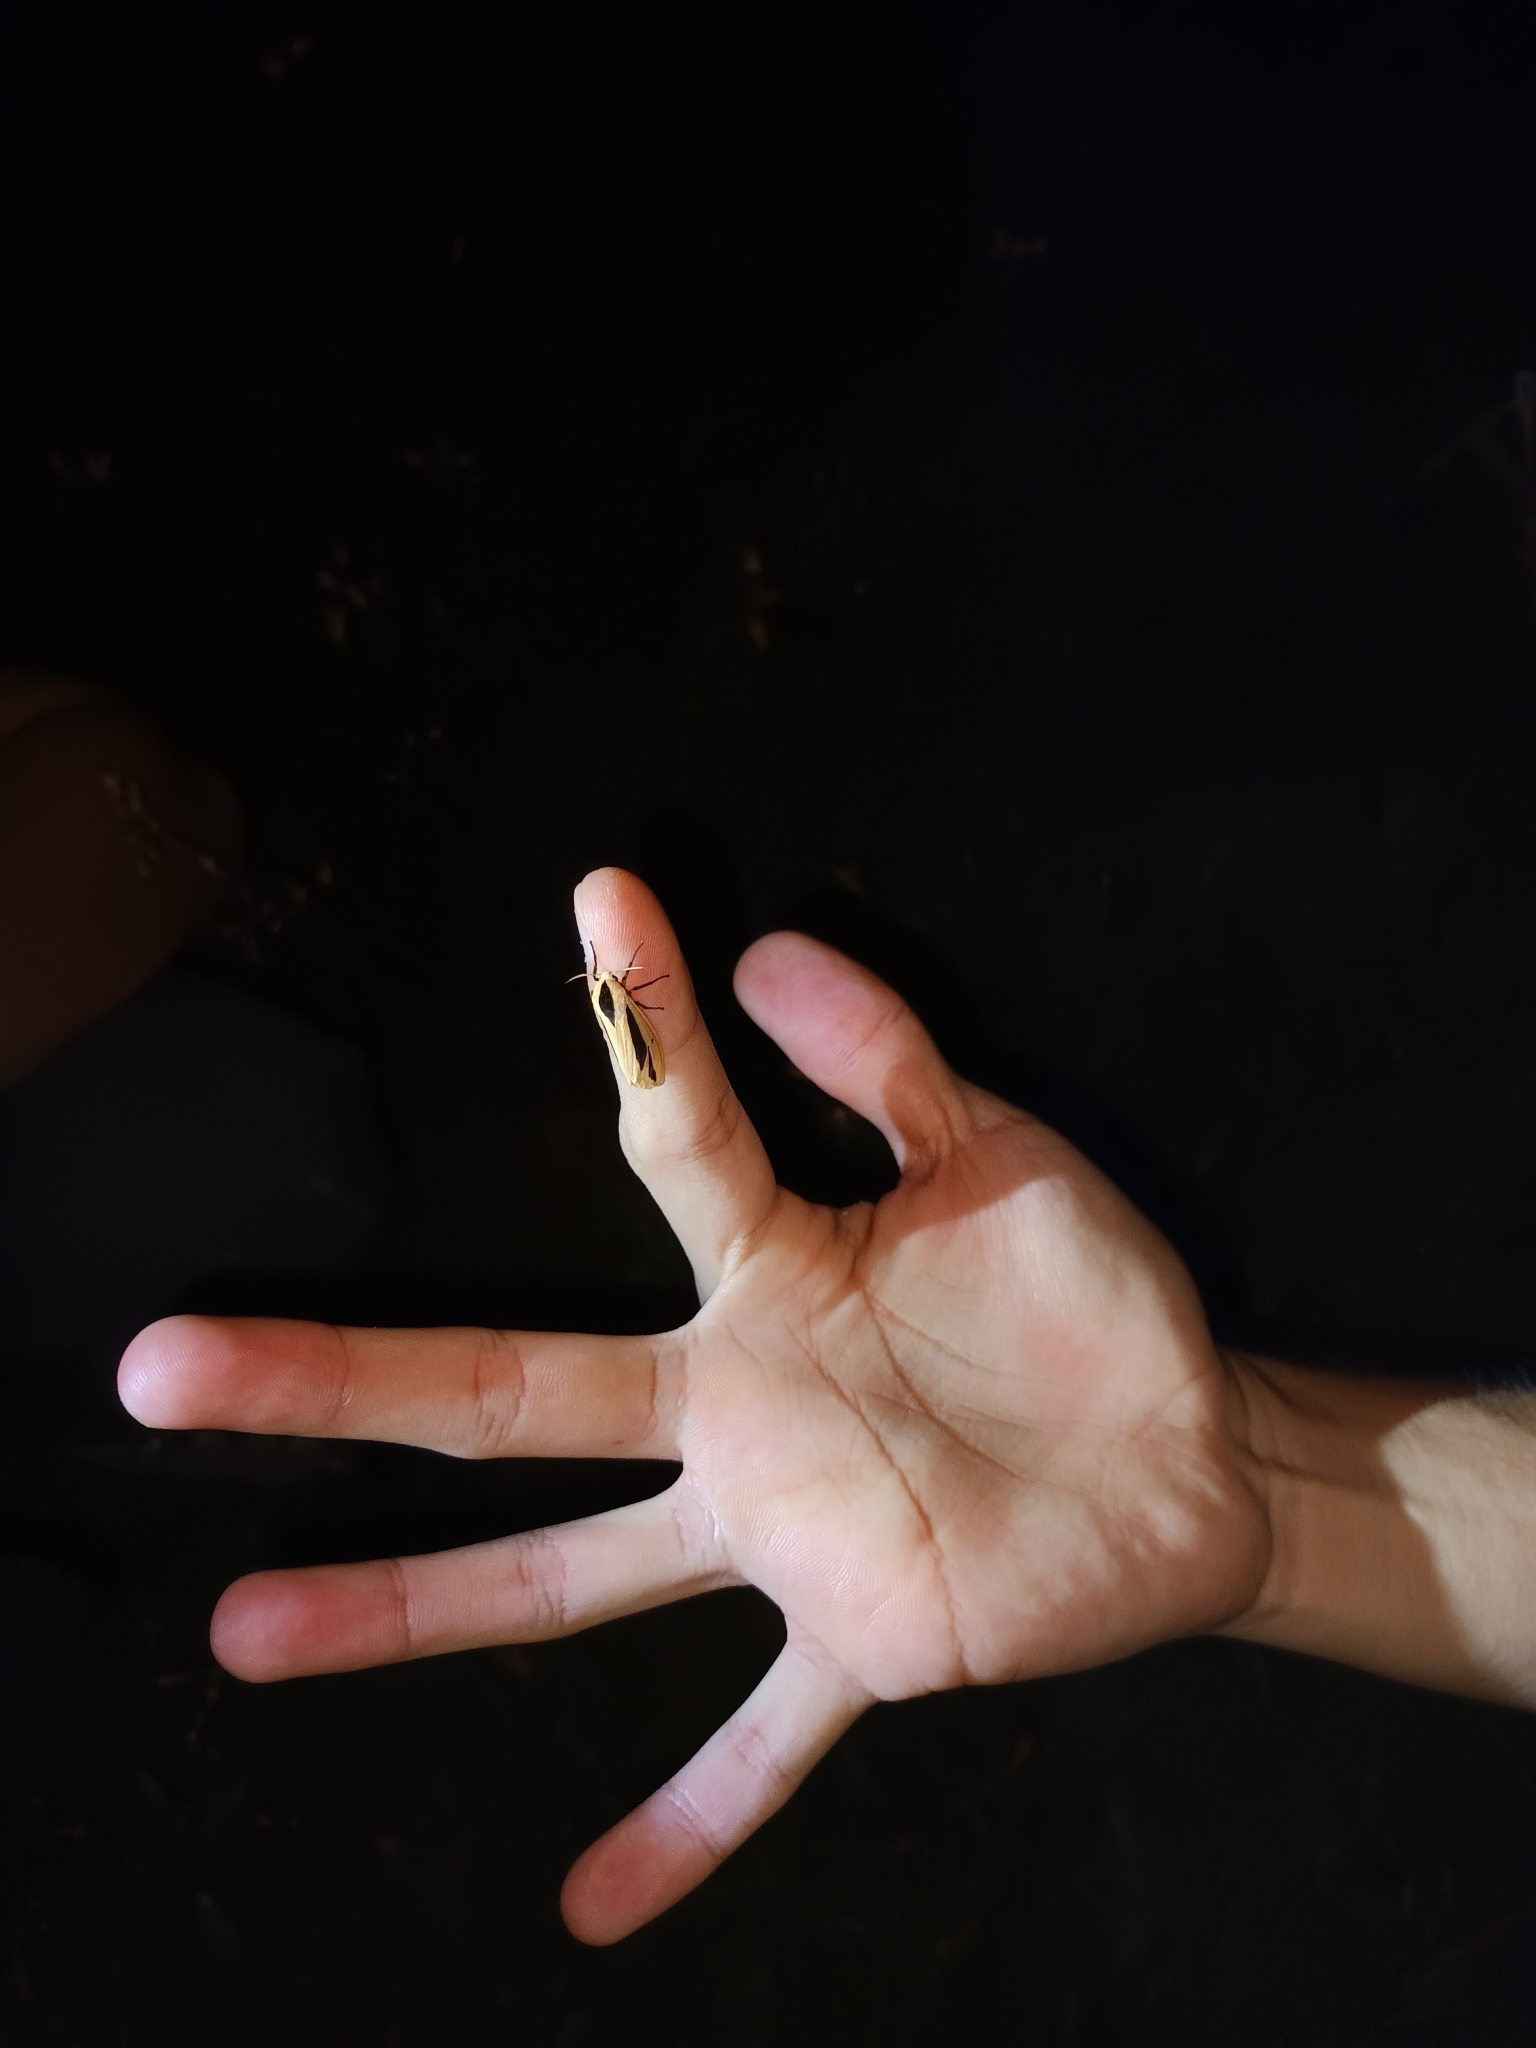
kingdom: Animalia
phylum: Arthropoda
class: Insecta
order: Lepidoptera
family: Erebidae
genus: Creatonotos
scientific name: Creatonotos gangis
